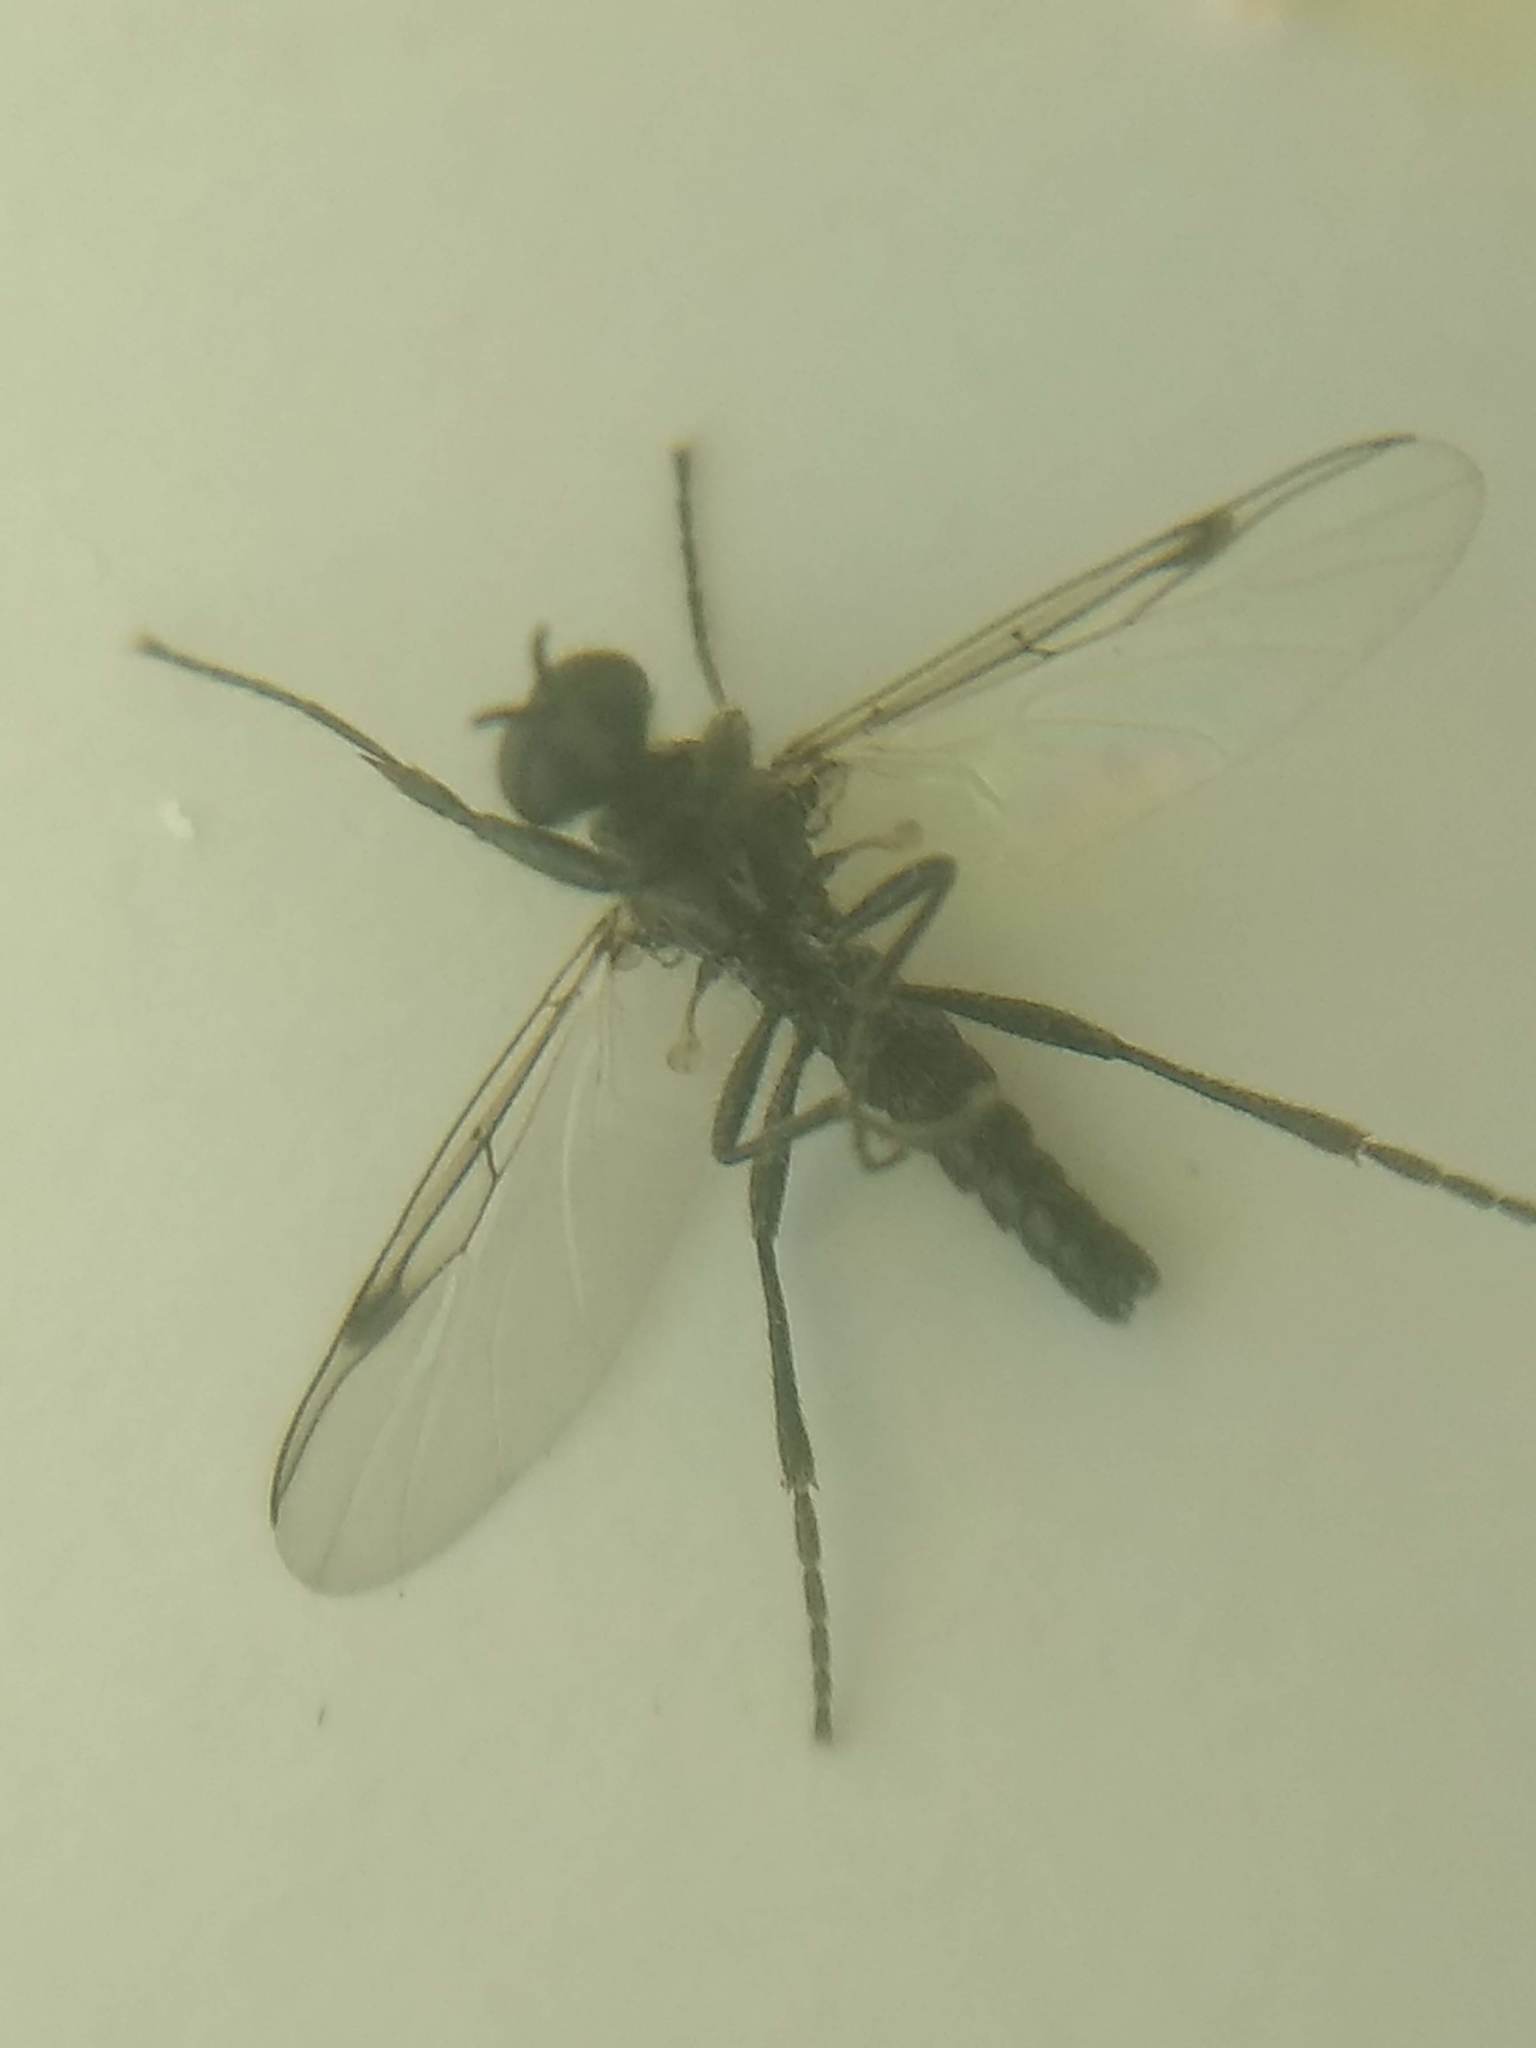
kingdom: Animalia
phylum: Arthropoda
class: Insecta
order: Diptera
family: Bibionidae
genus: Bibiodes
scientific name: Bibiodes halteralis
